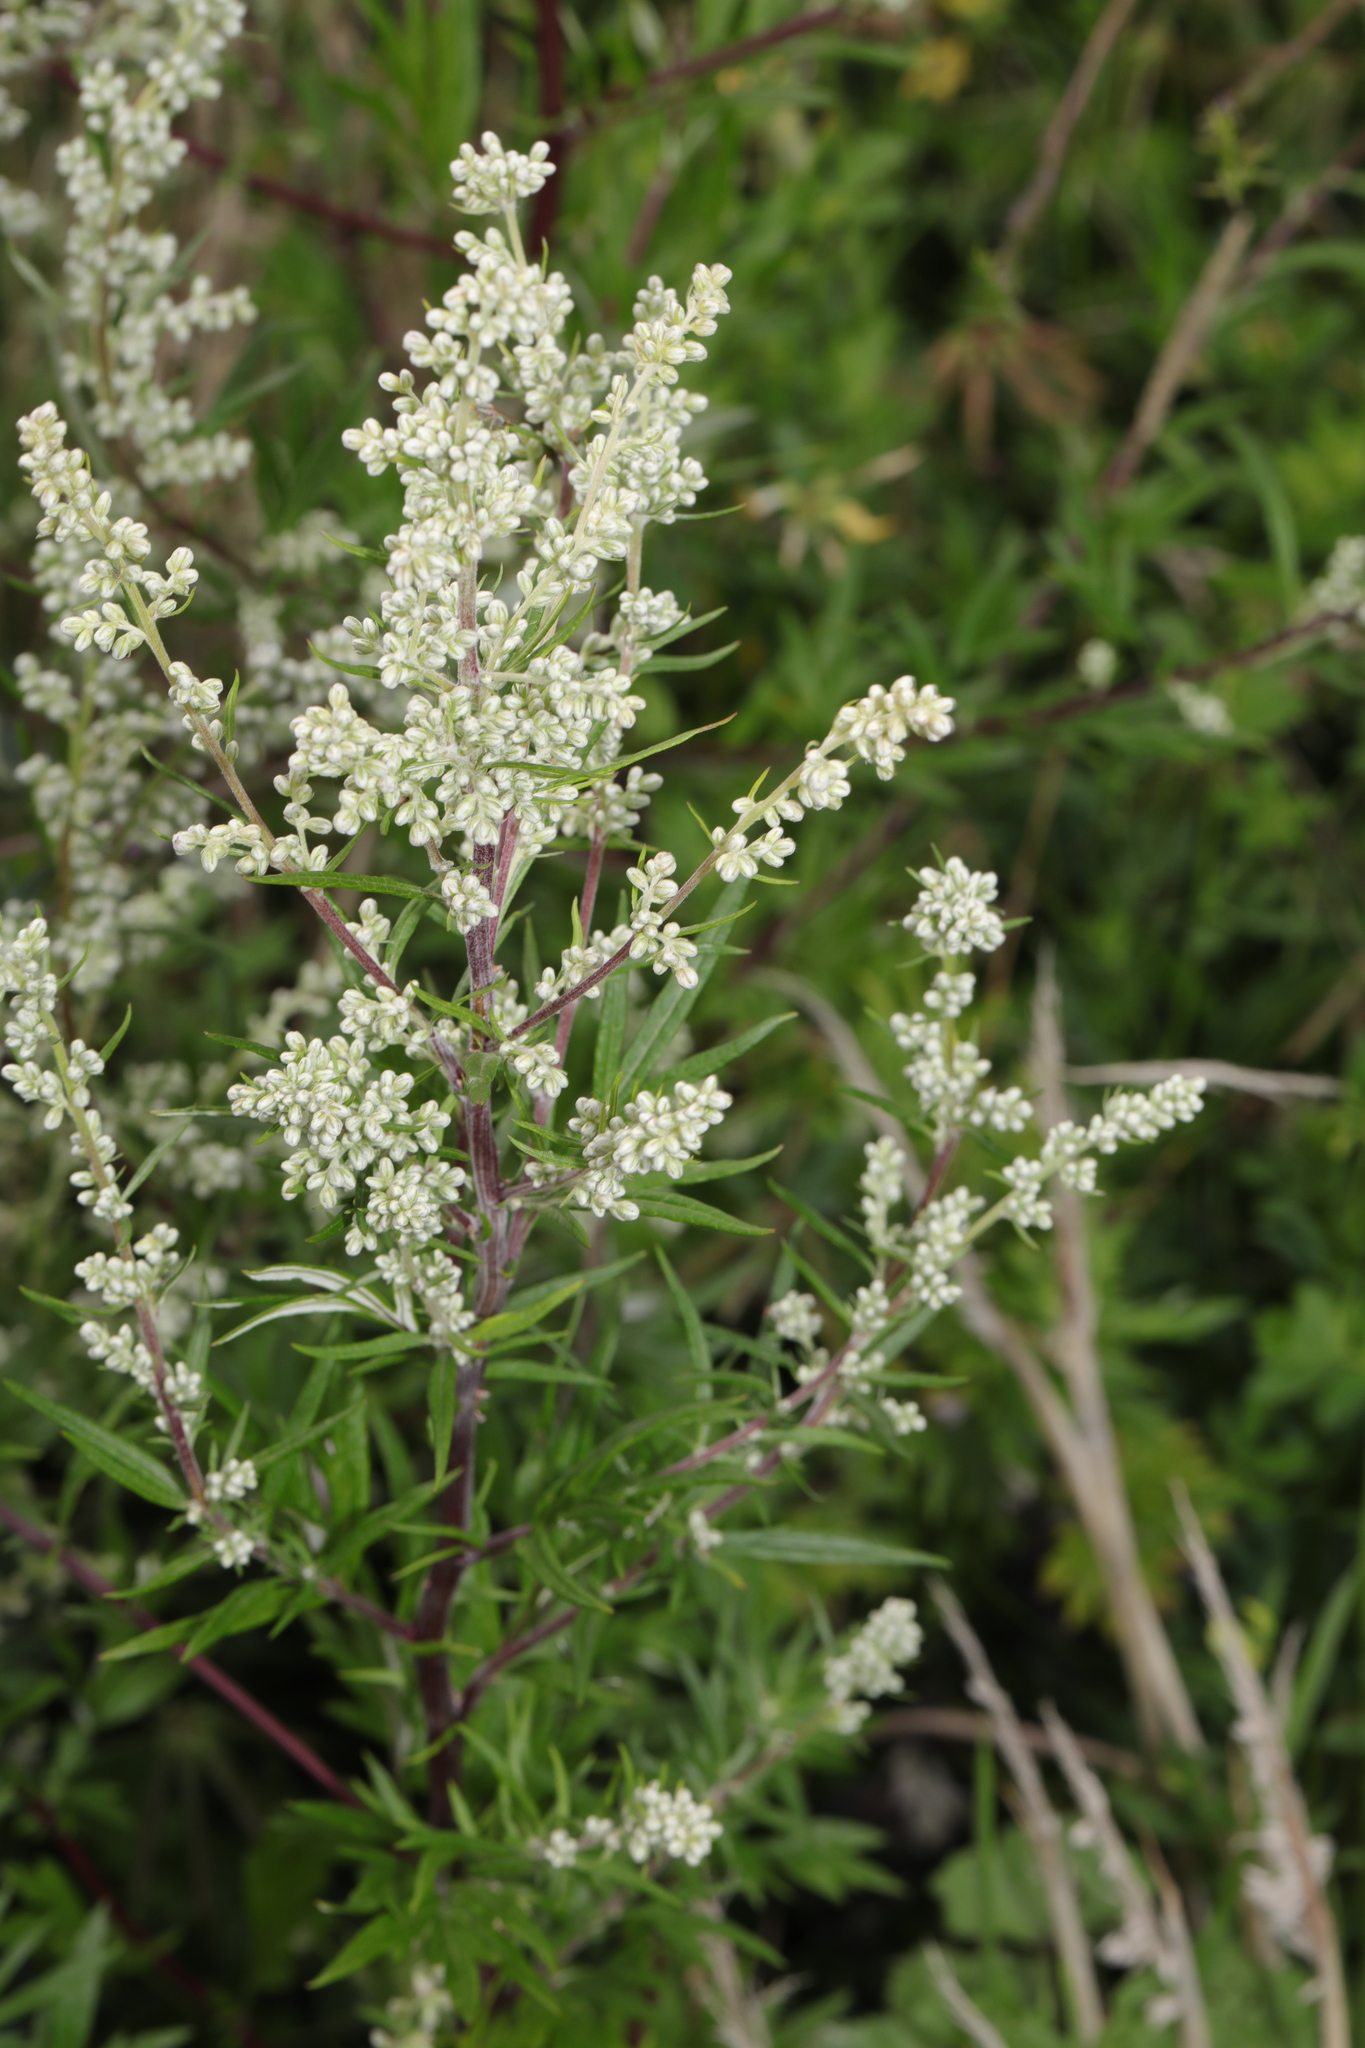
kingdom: Plantae
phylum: Tracheophyta
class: Magnoliopsida
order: Asterales
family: Asteraceae
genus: Artemisia
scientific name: Artemisia vulgaris
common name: Mugwort
